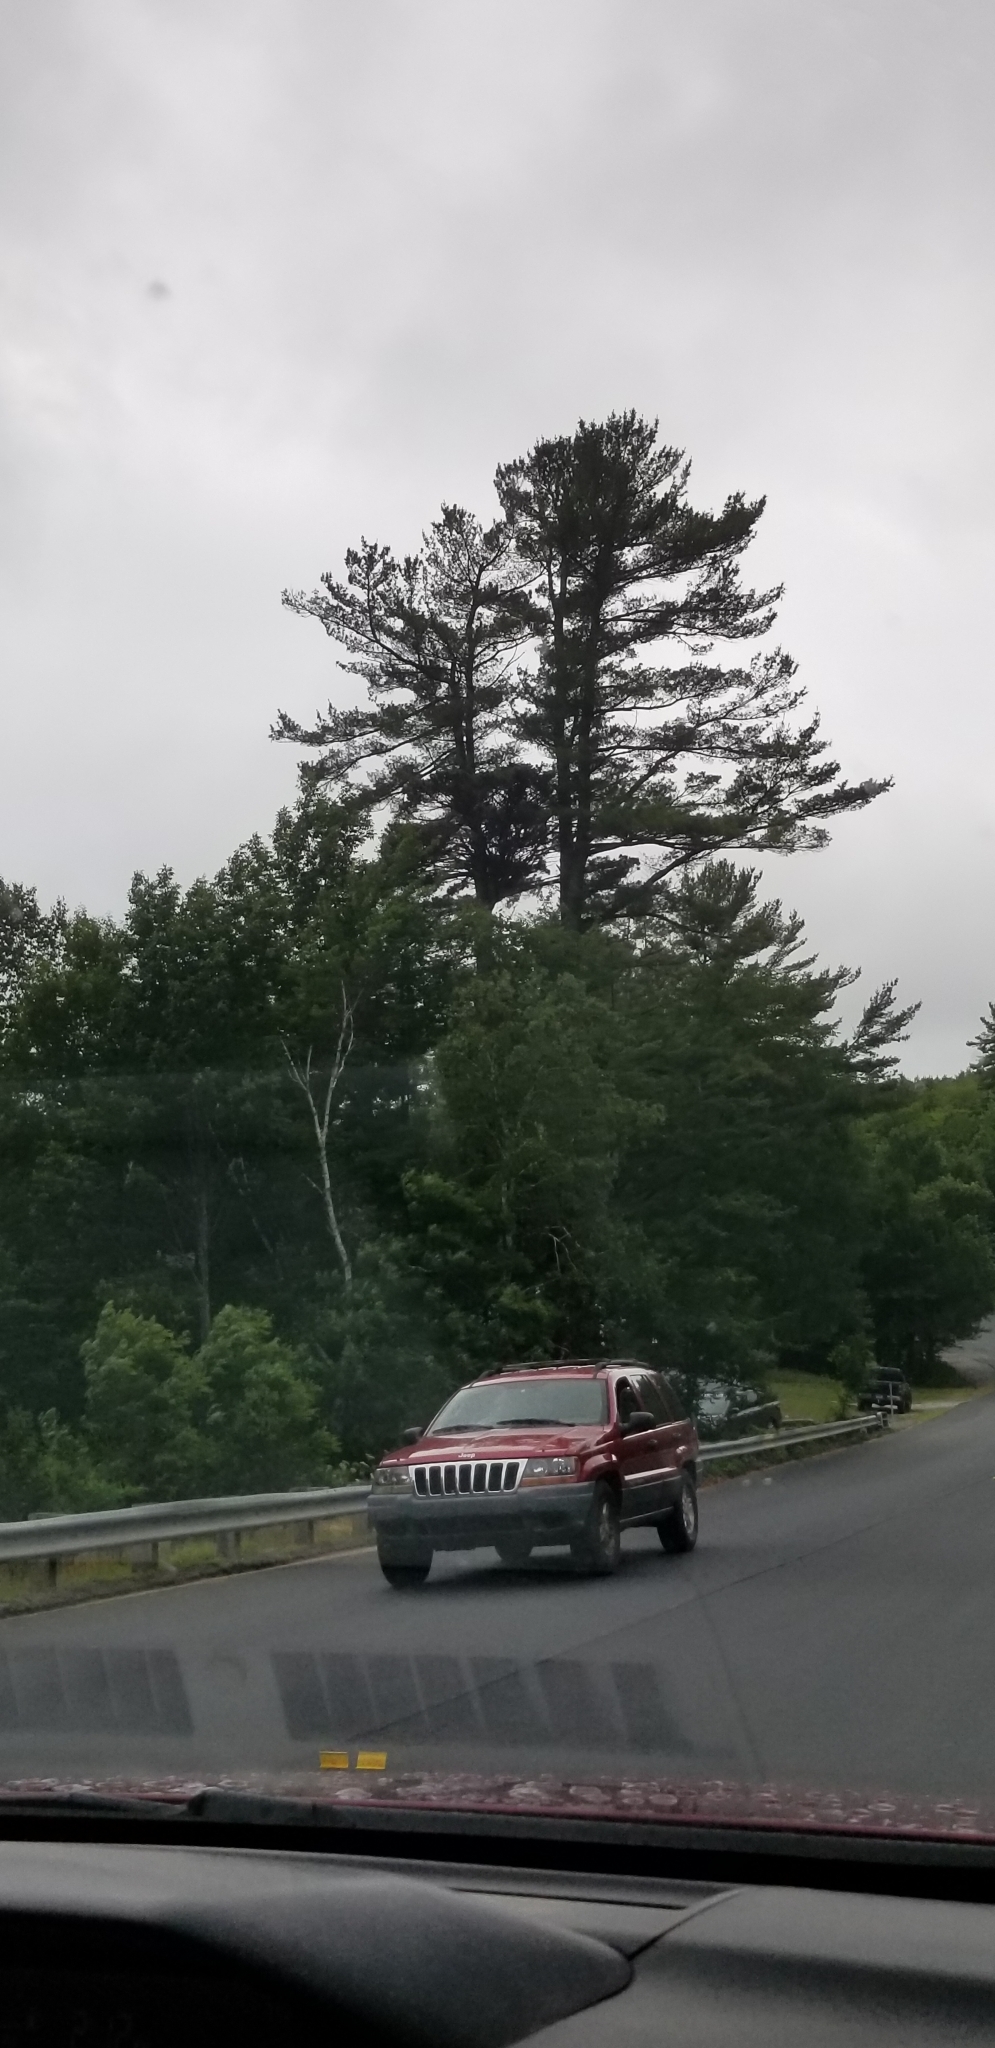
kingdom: Plantae
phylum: Tracheophyta
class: Pinopsida
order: Pinales
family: Pinaceae
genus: Pinus
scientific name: Pinus strobus
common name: Weymouth pine
